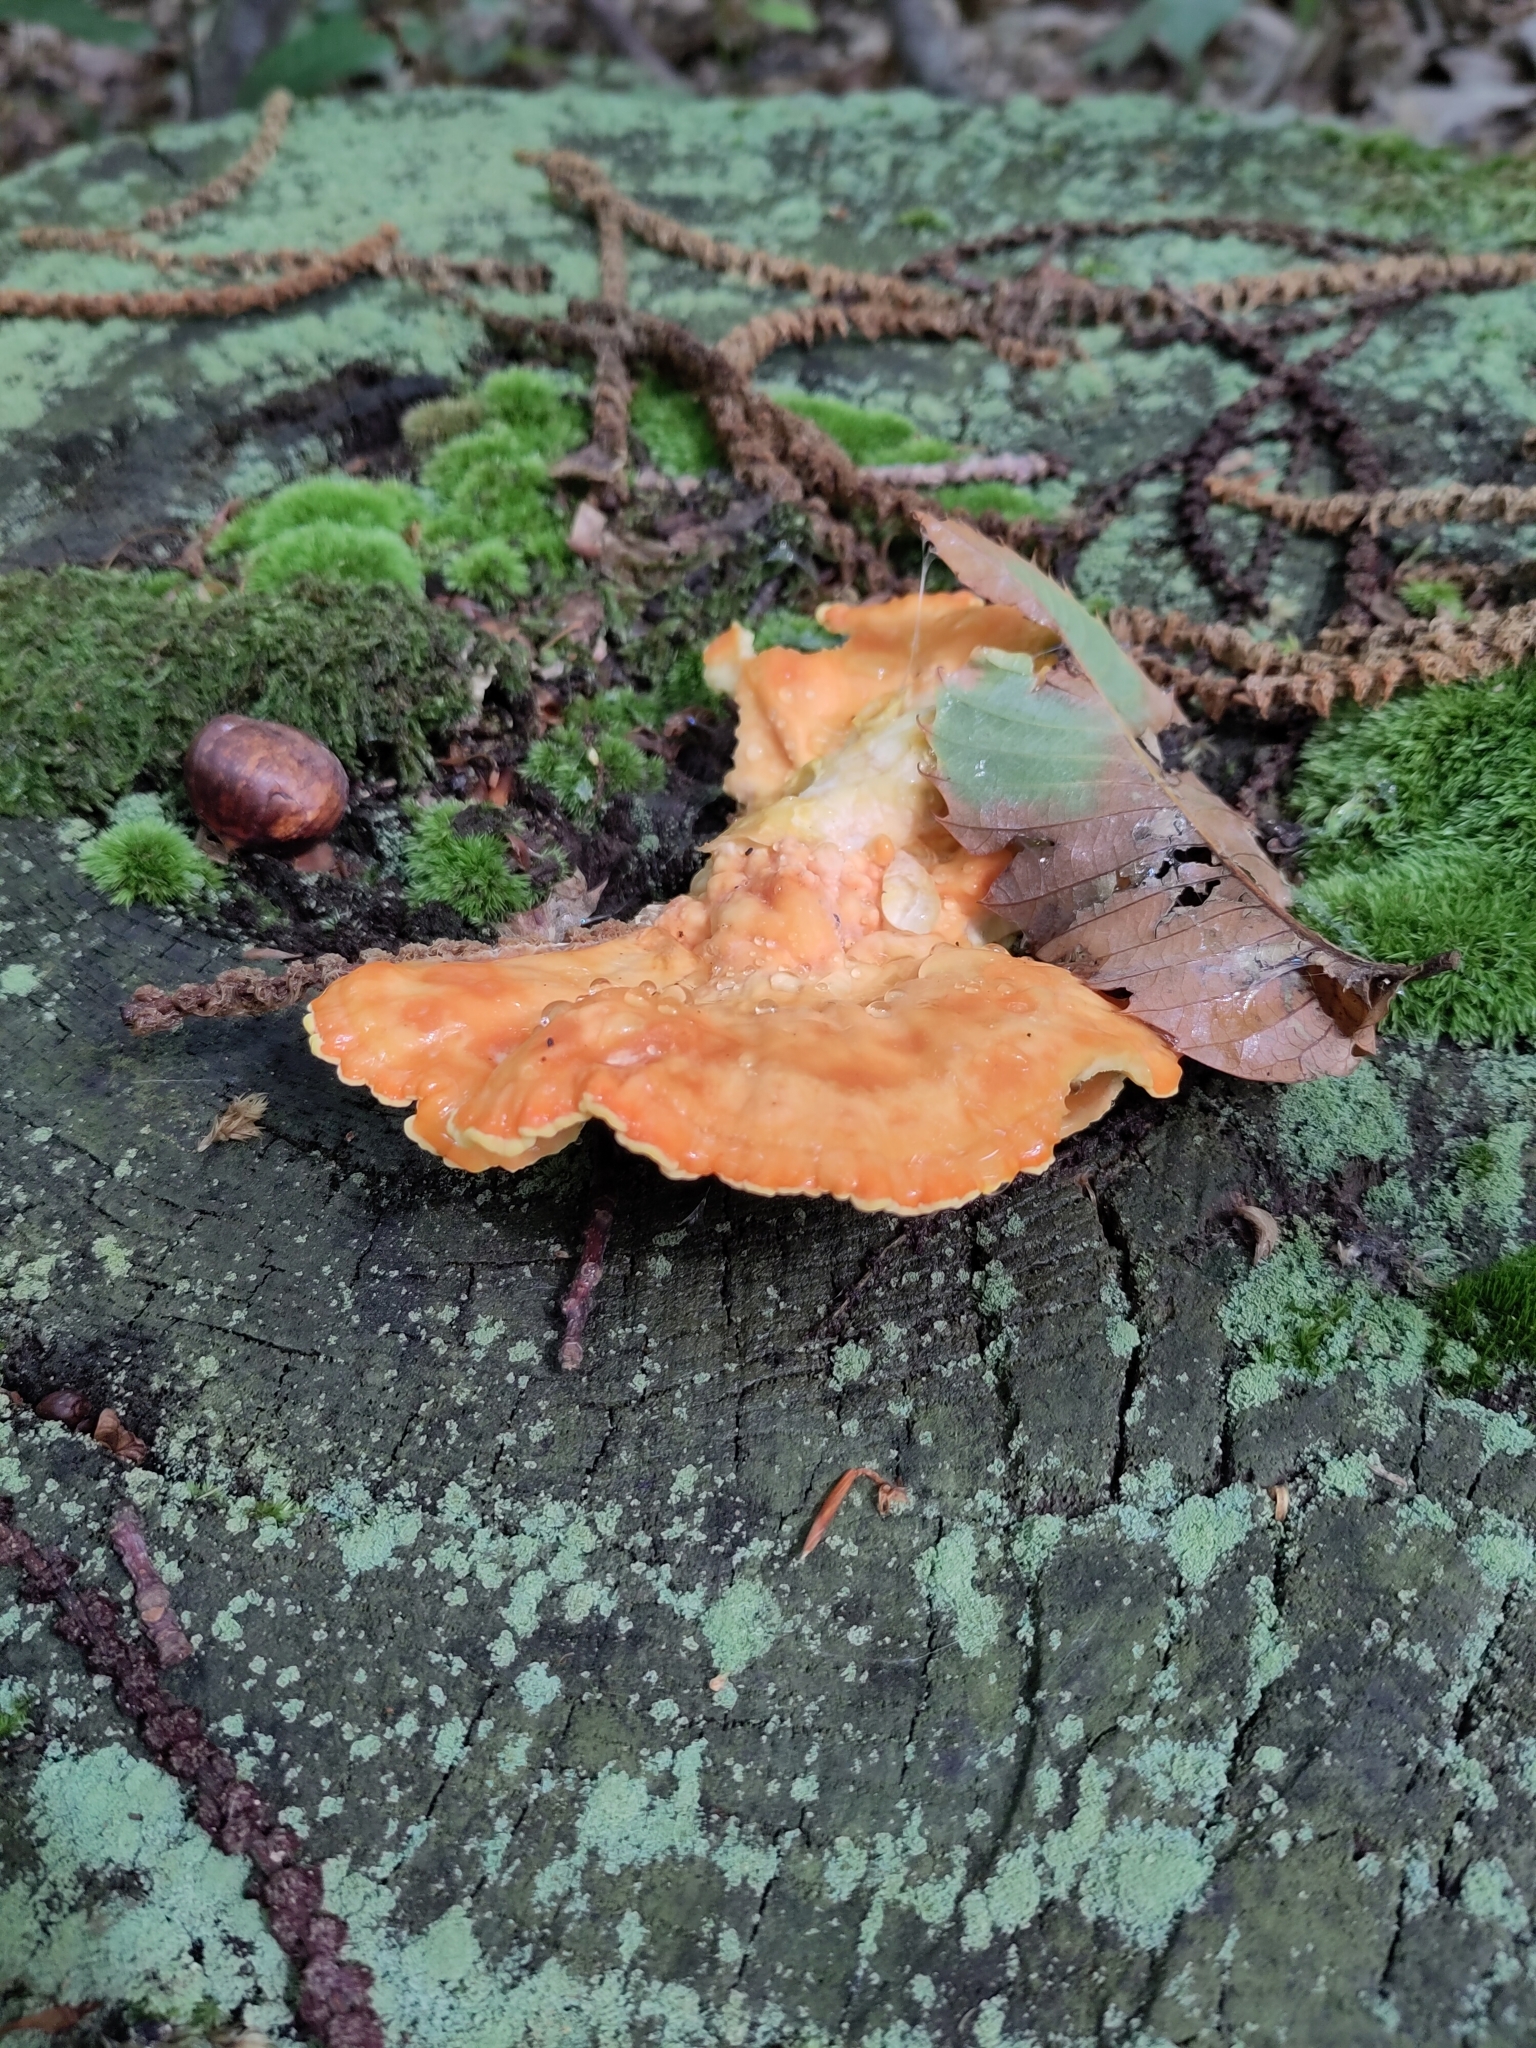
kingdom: Fungi
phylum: Basidiomycota
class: Agaricomycetes
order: Polyporales
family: Laetiporaceae
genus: Laetiporus
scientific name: Laetiporus sulphureus
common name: Chicken of the woods
